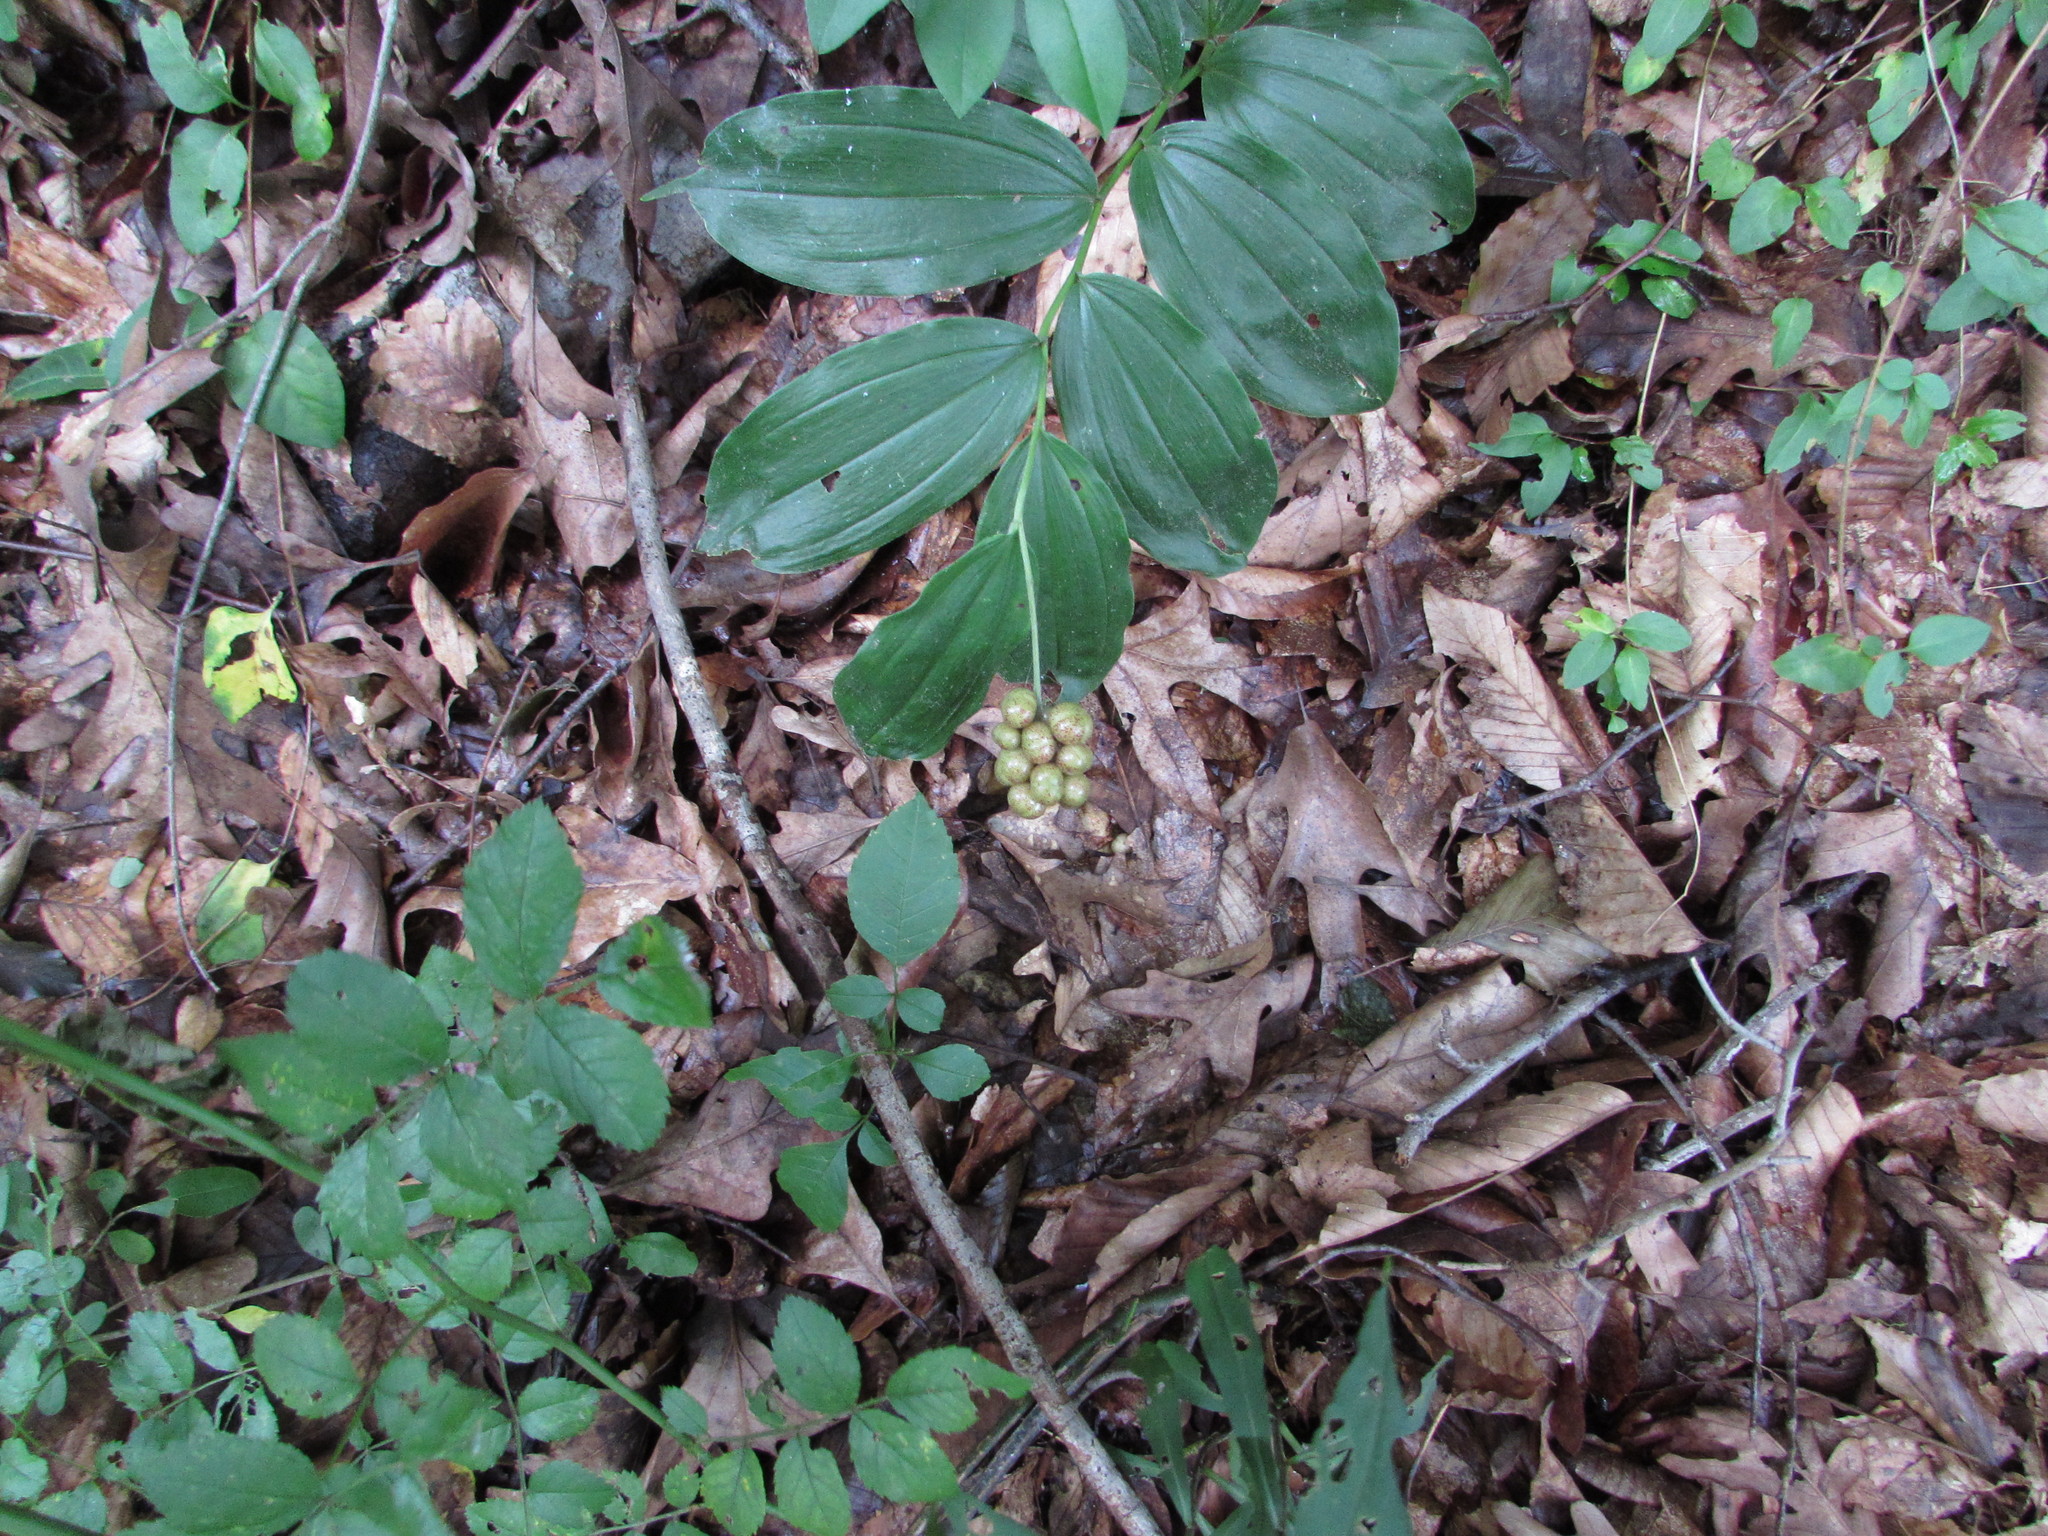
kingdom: Plantae
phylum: Tracheophyta
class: Liliopsida
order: Asparagales
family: Asparagaceae
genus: Maianthemum
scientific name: Maianthemum racemosum
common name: False spikenard
